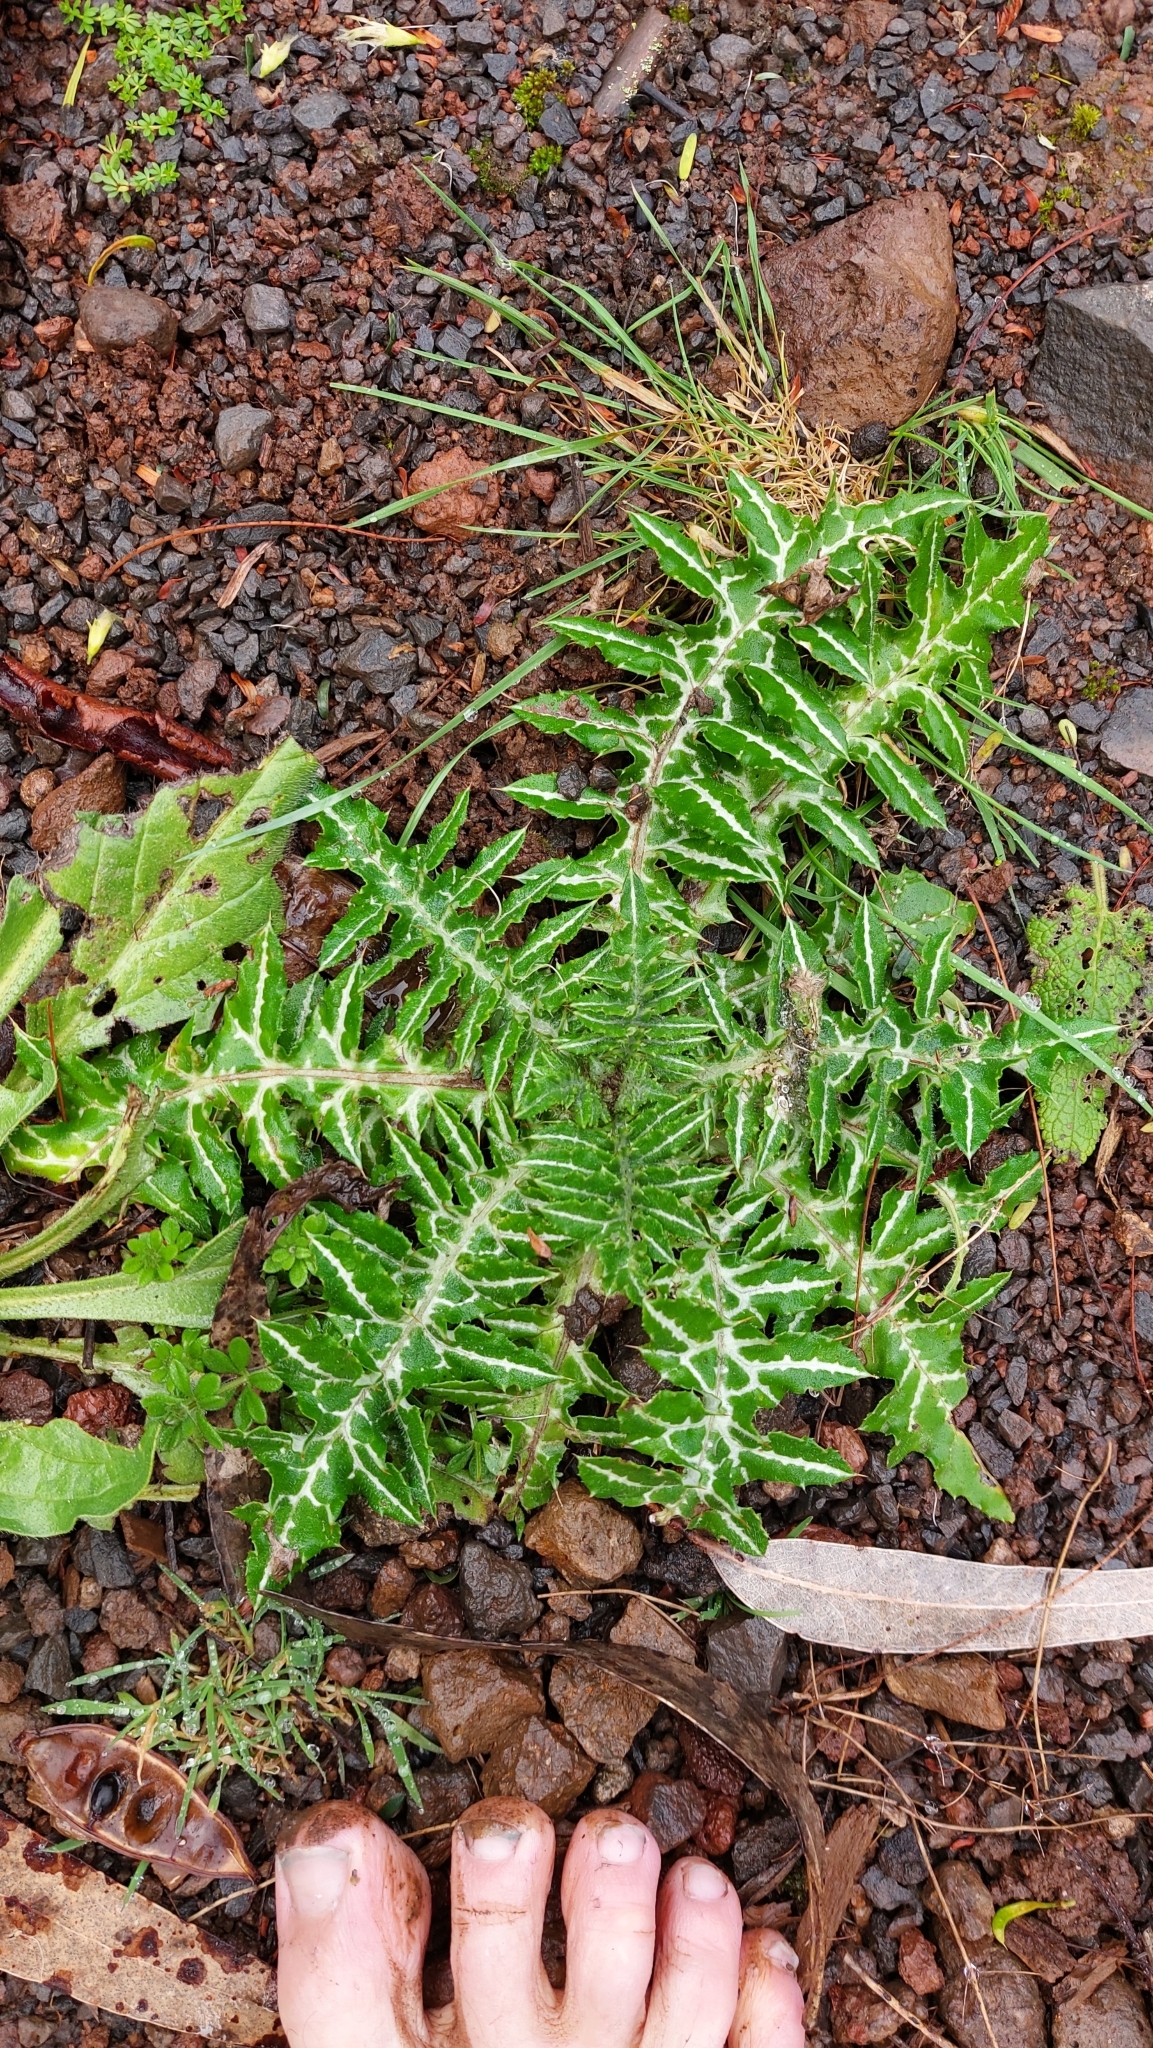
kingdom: Plantae
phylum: Tracheophyta
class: Magnoliopsida
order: Asterales
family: Asteraceae
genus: Galactites
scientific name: Galactites tomentosa
